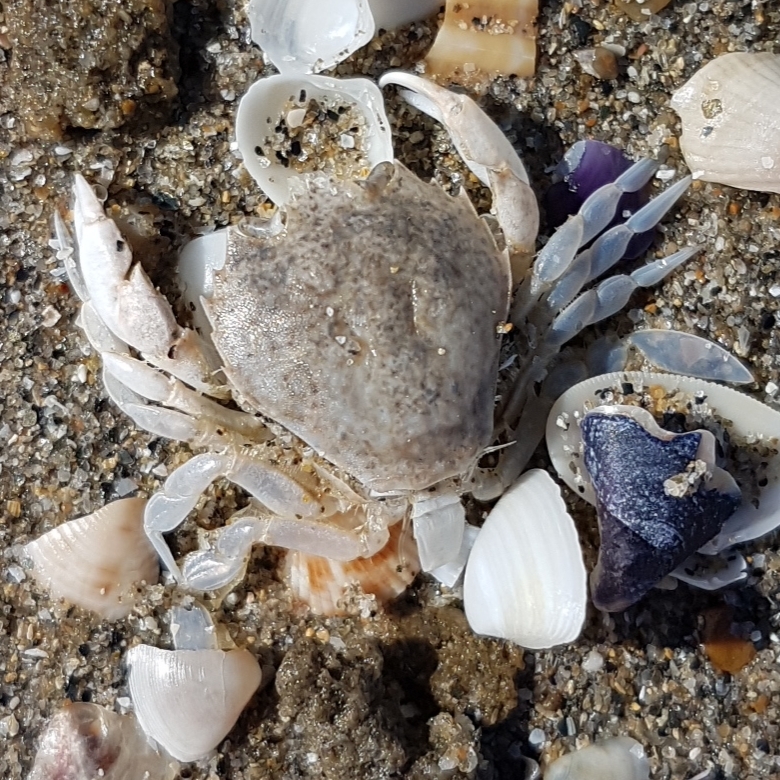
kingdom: Animalia
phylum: Arthropoda
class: Malacostraca
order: Decapoda
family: Carcinidae
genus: Portumnus
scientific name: Portumnus latipes
